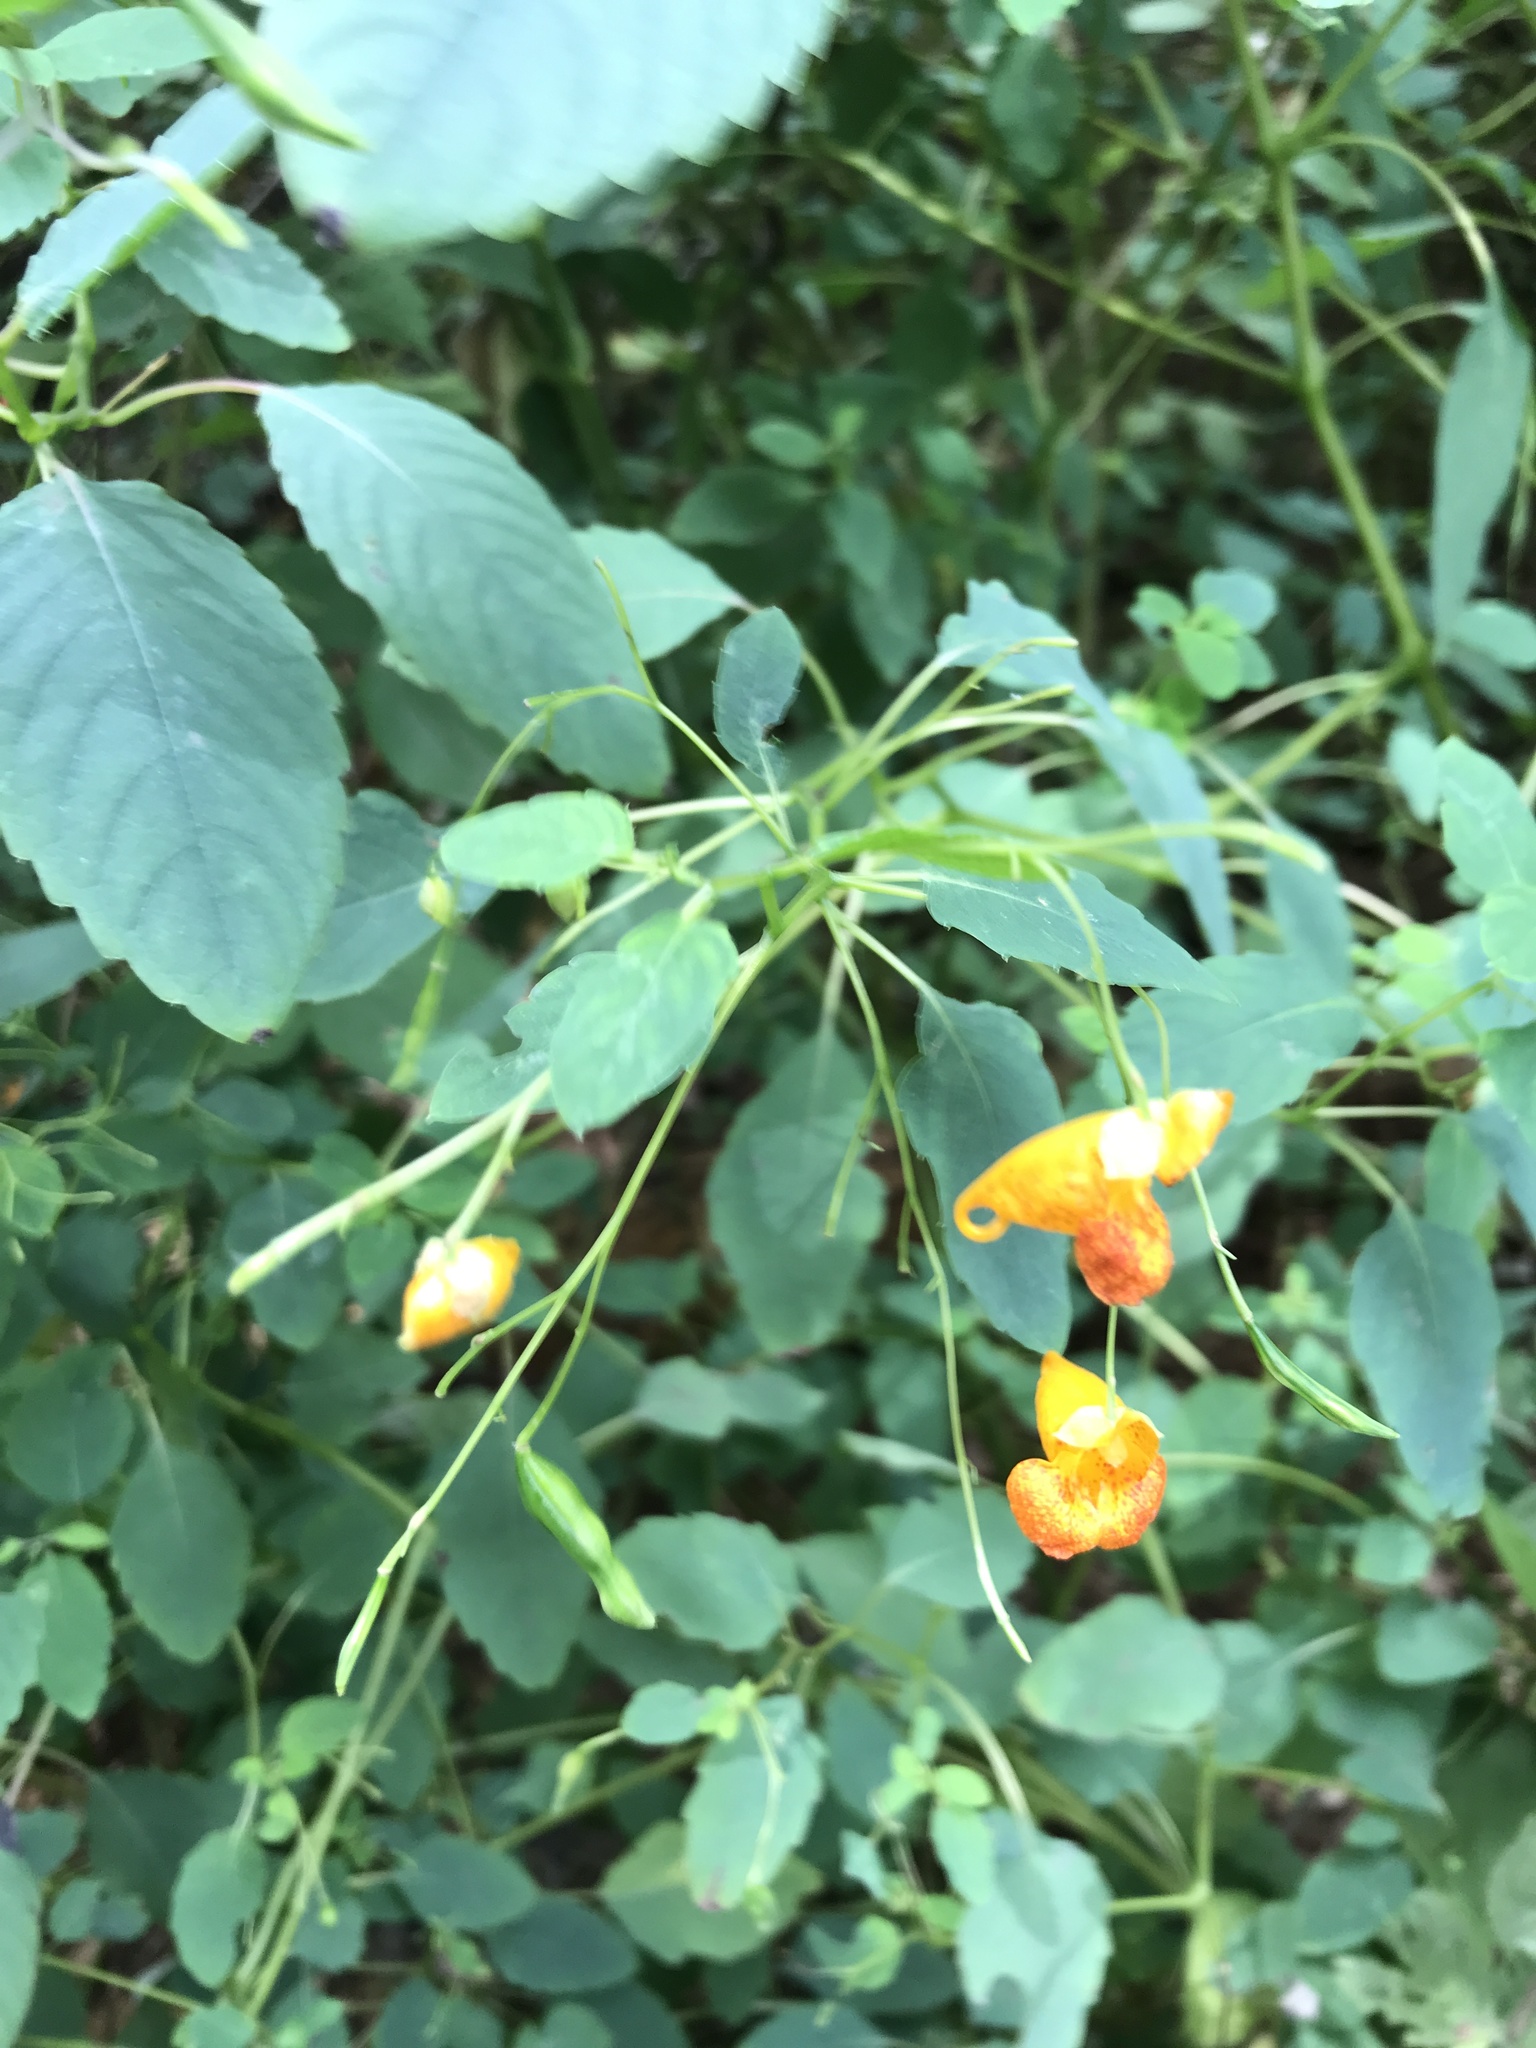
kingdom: Plantae
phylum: Tracheophyta
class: Magnoliopsida
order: Ericales
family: Balsaminaceae
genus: Impatiens
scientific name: Impatiens capensis
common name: Orange balsam
